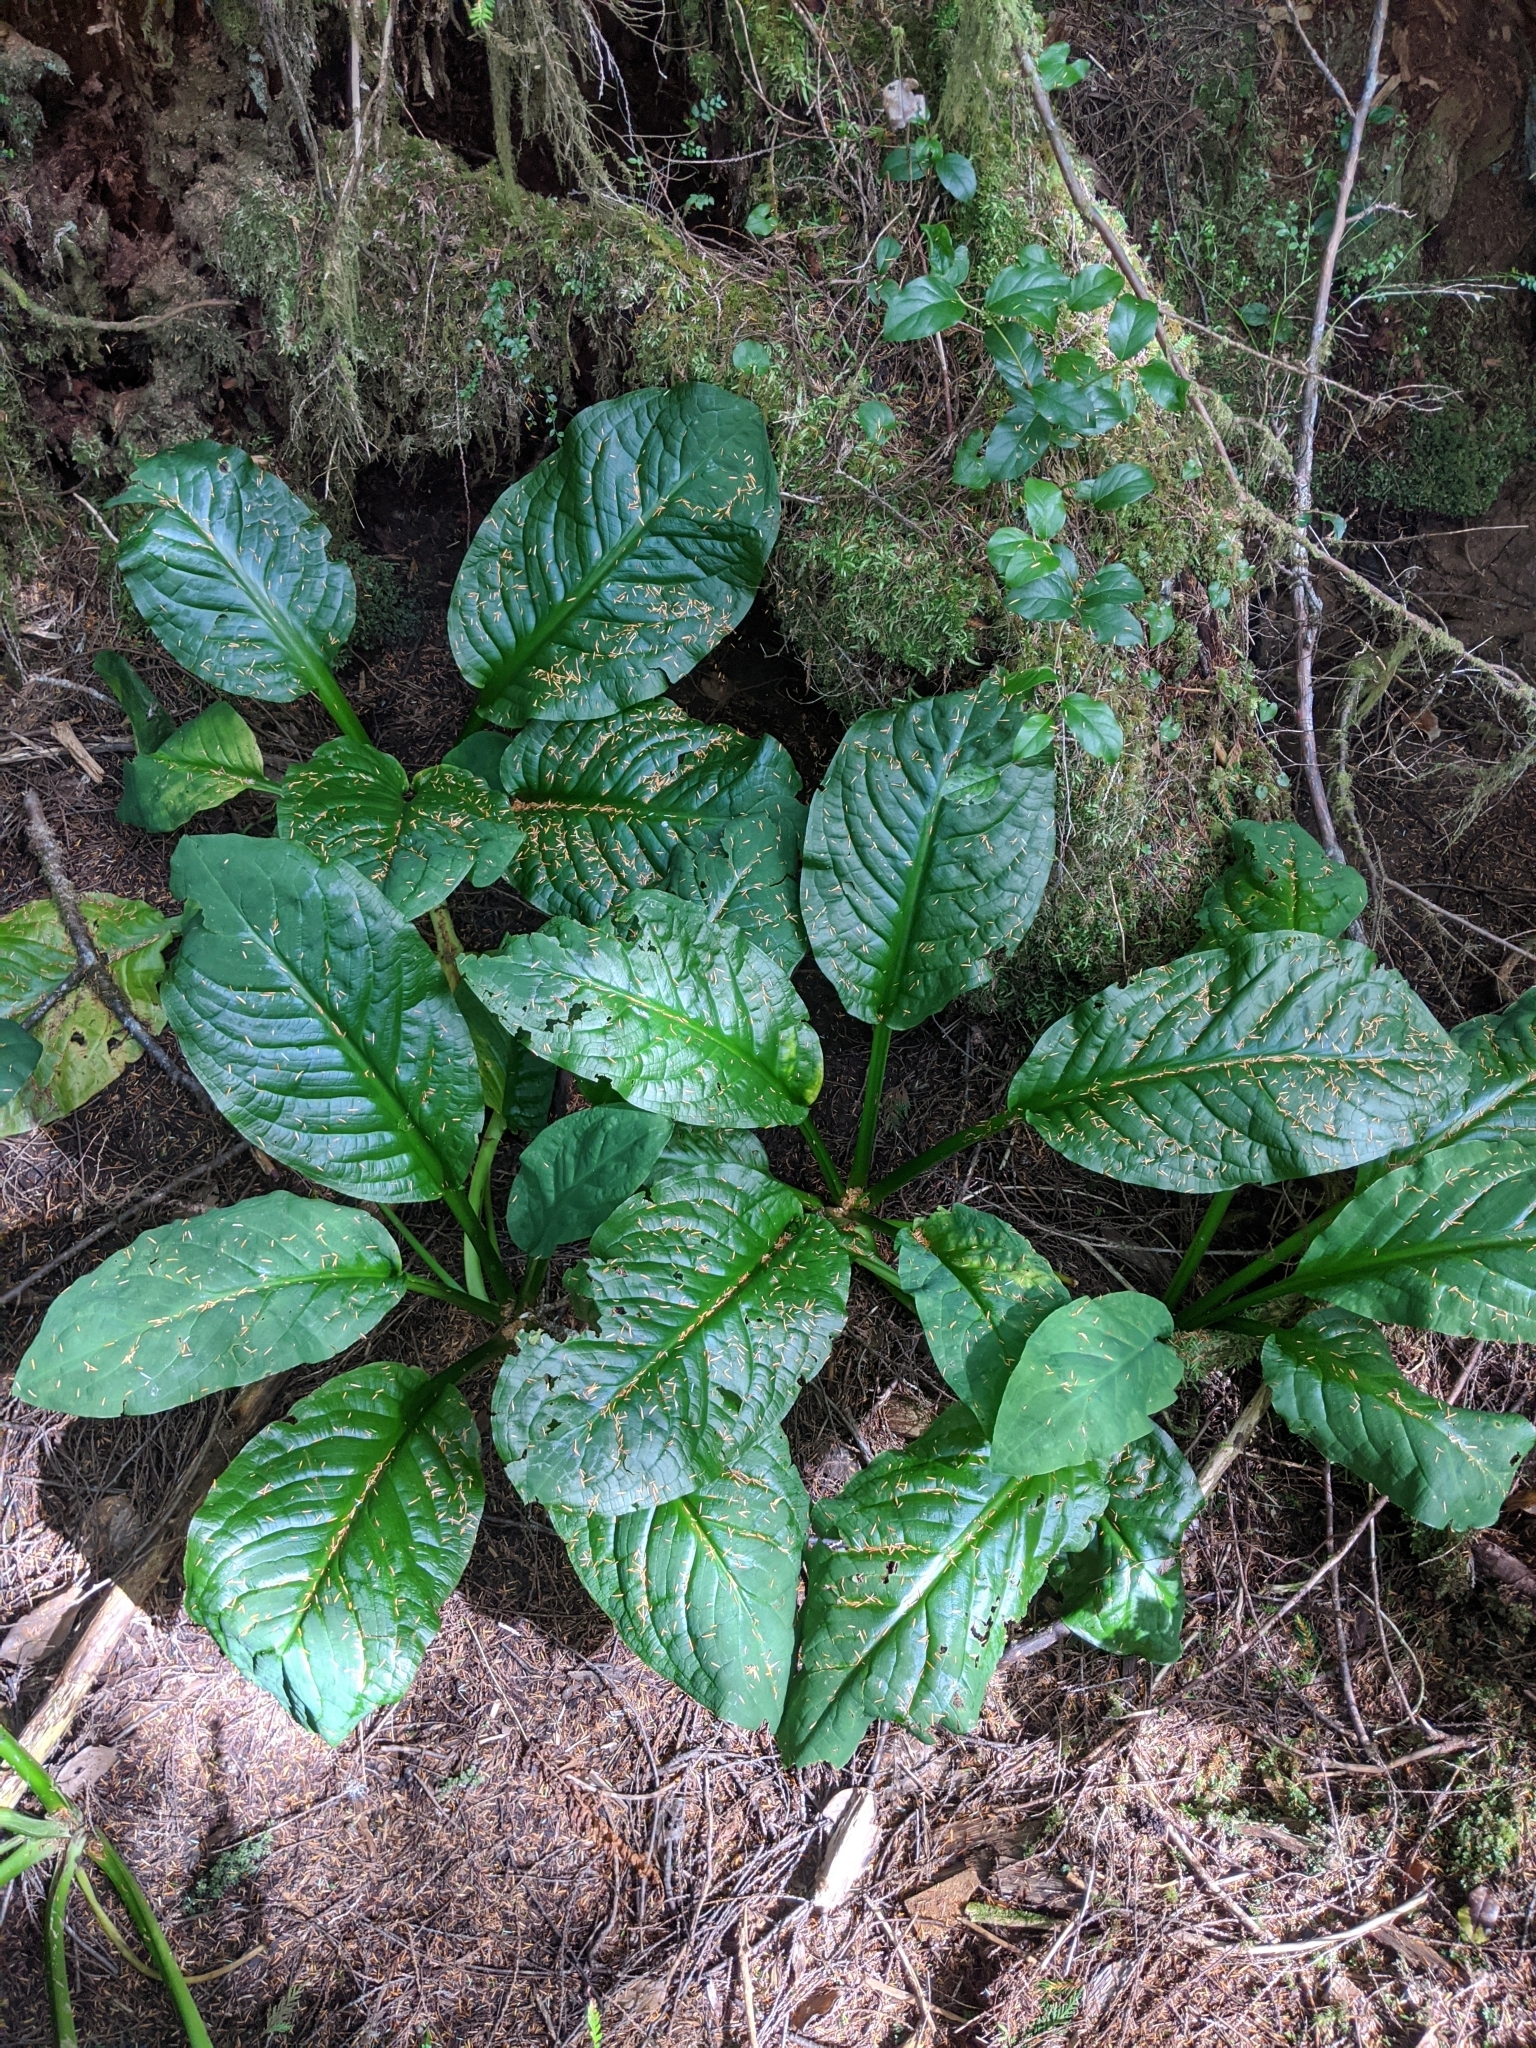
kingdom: Plantae
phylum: Tracheophyta
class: Liliopsida
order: Alismatales
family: Araceae
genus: Lysichiton
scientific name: Lysichiton americanus
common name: American skunk cabbage
